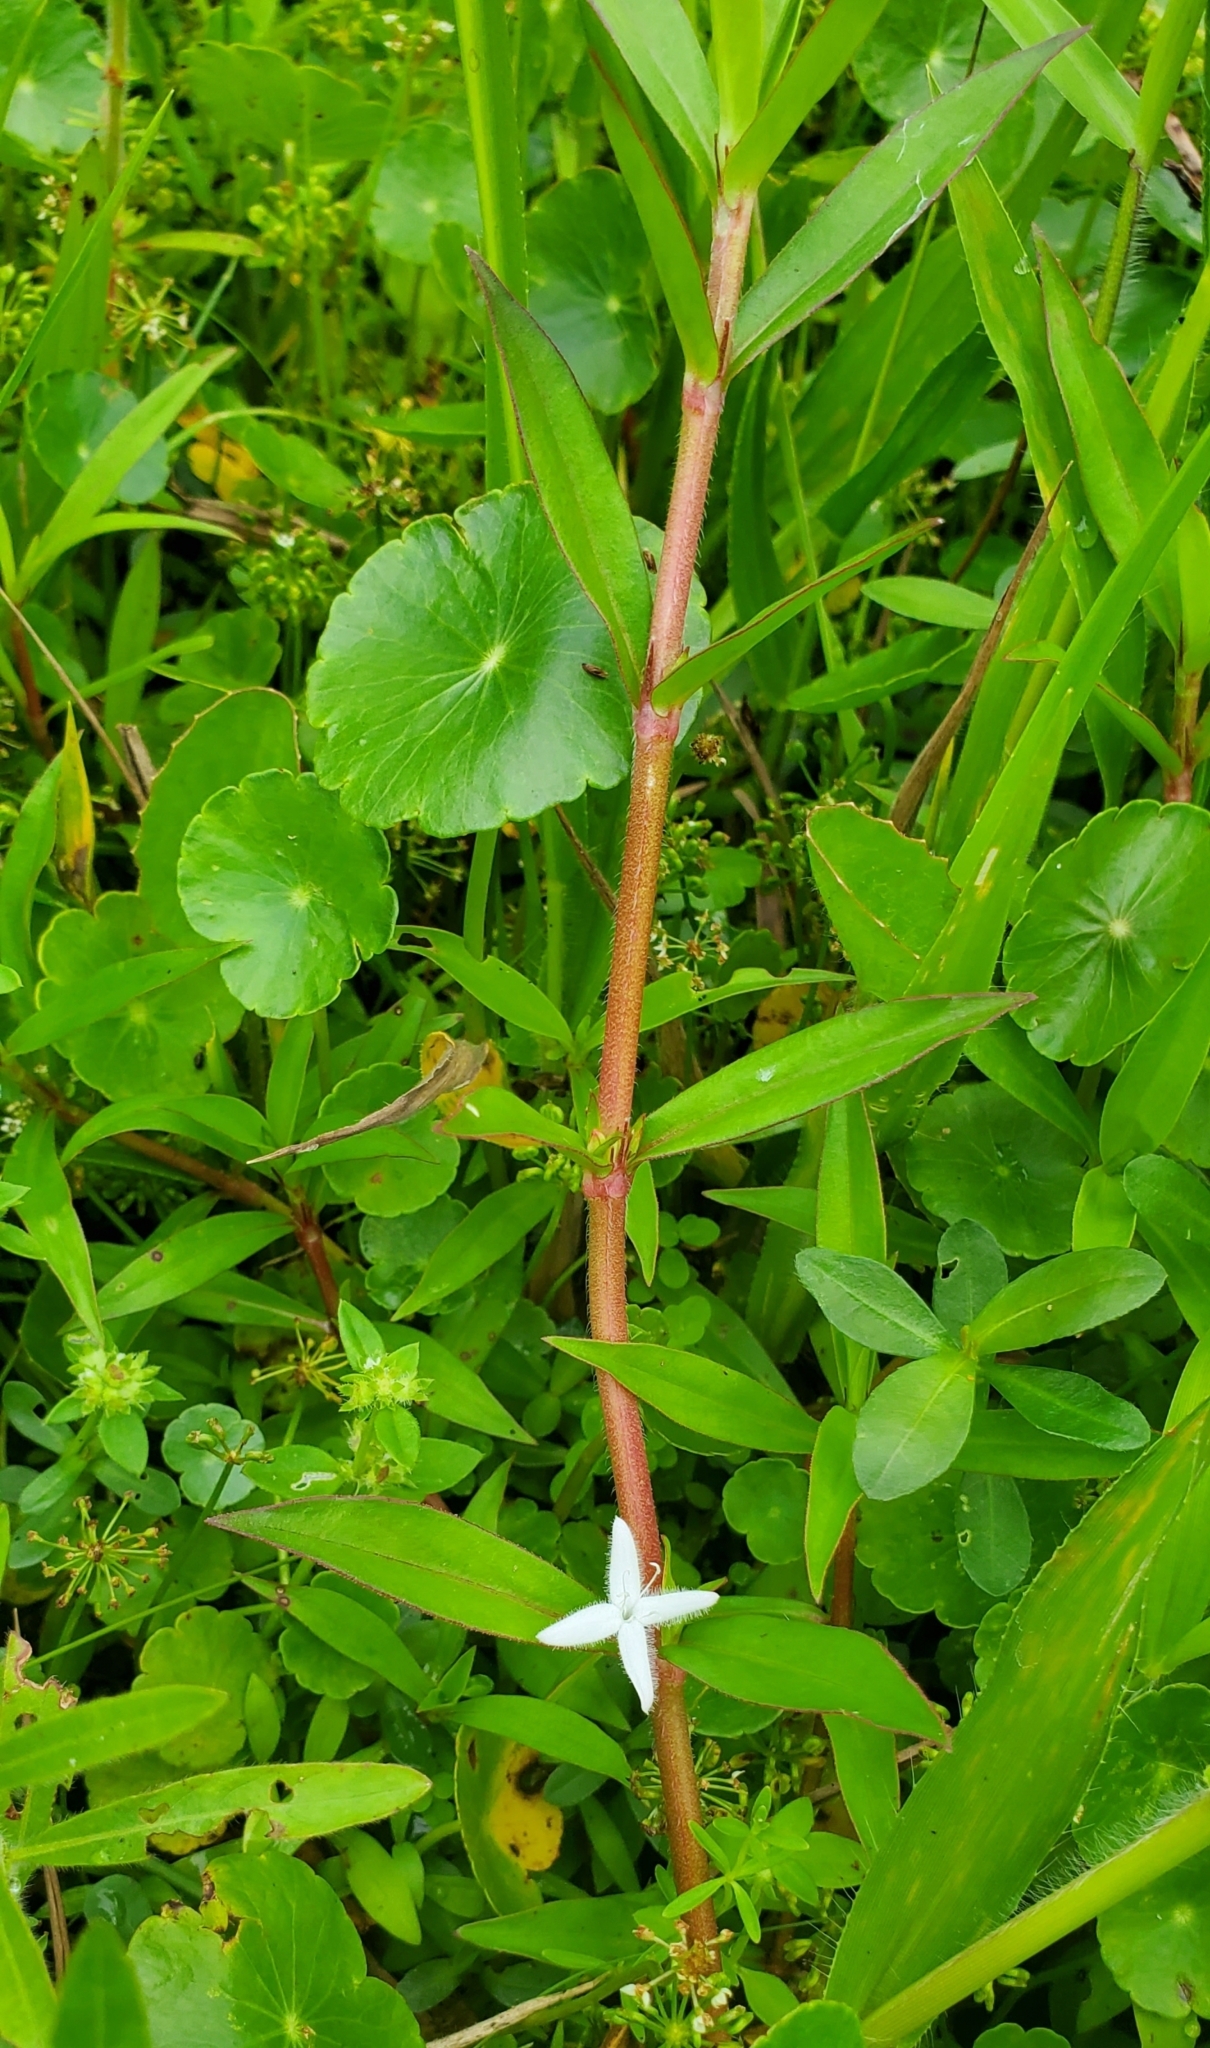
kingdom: Plantae
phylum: Tracheophyta
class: Magnoliopsida
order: Gentianales
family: Rubiaceae
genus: Diodia
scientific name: Diodia virginiana
